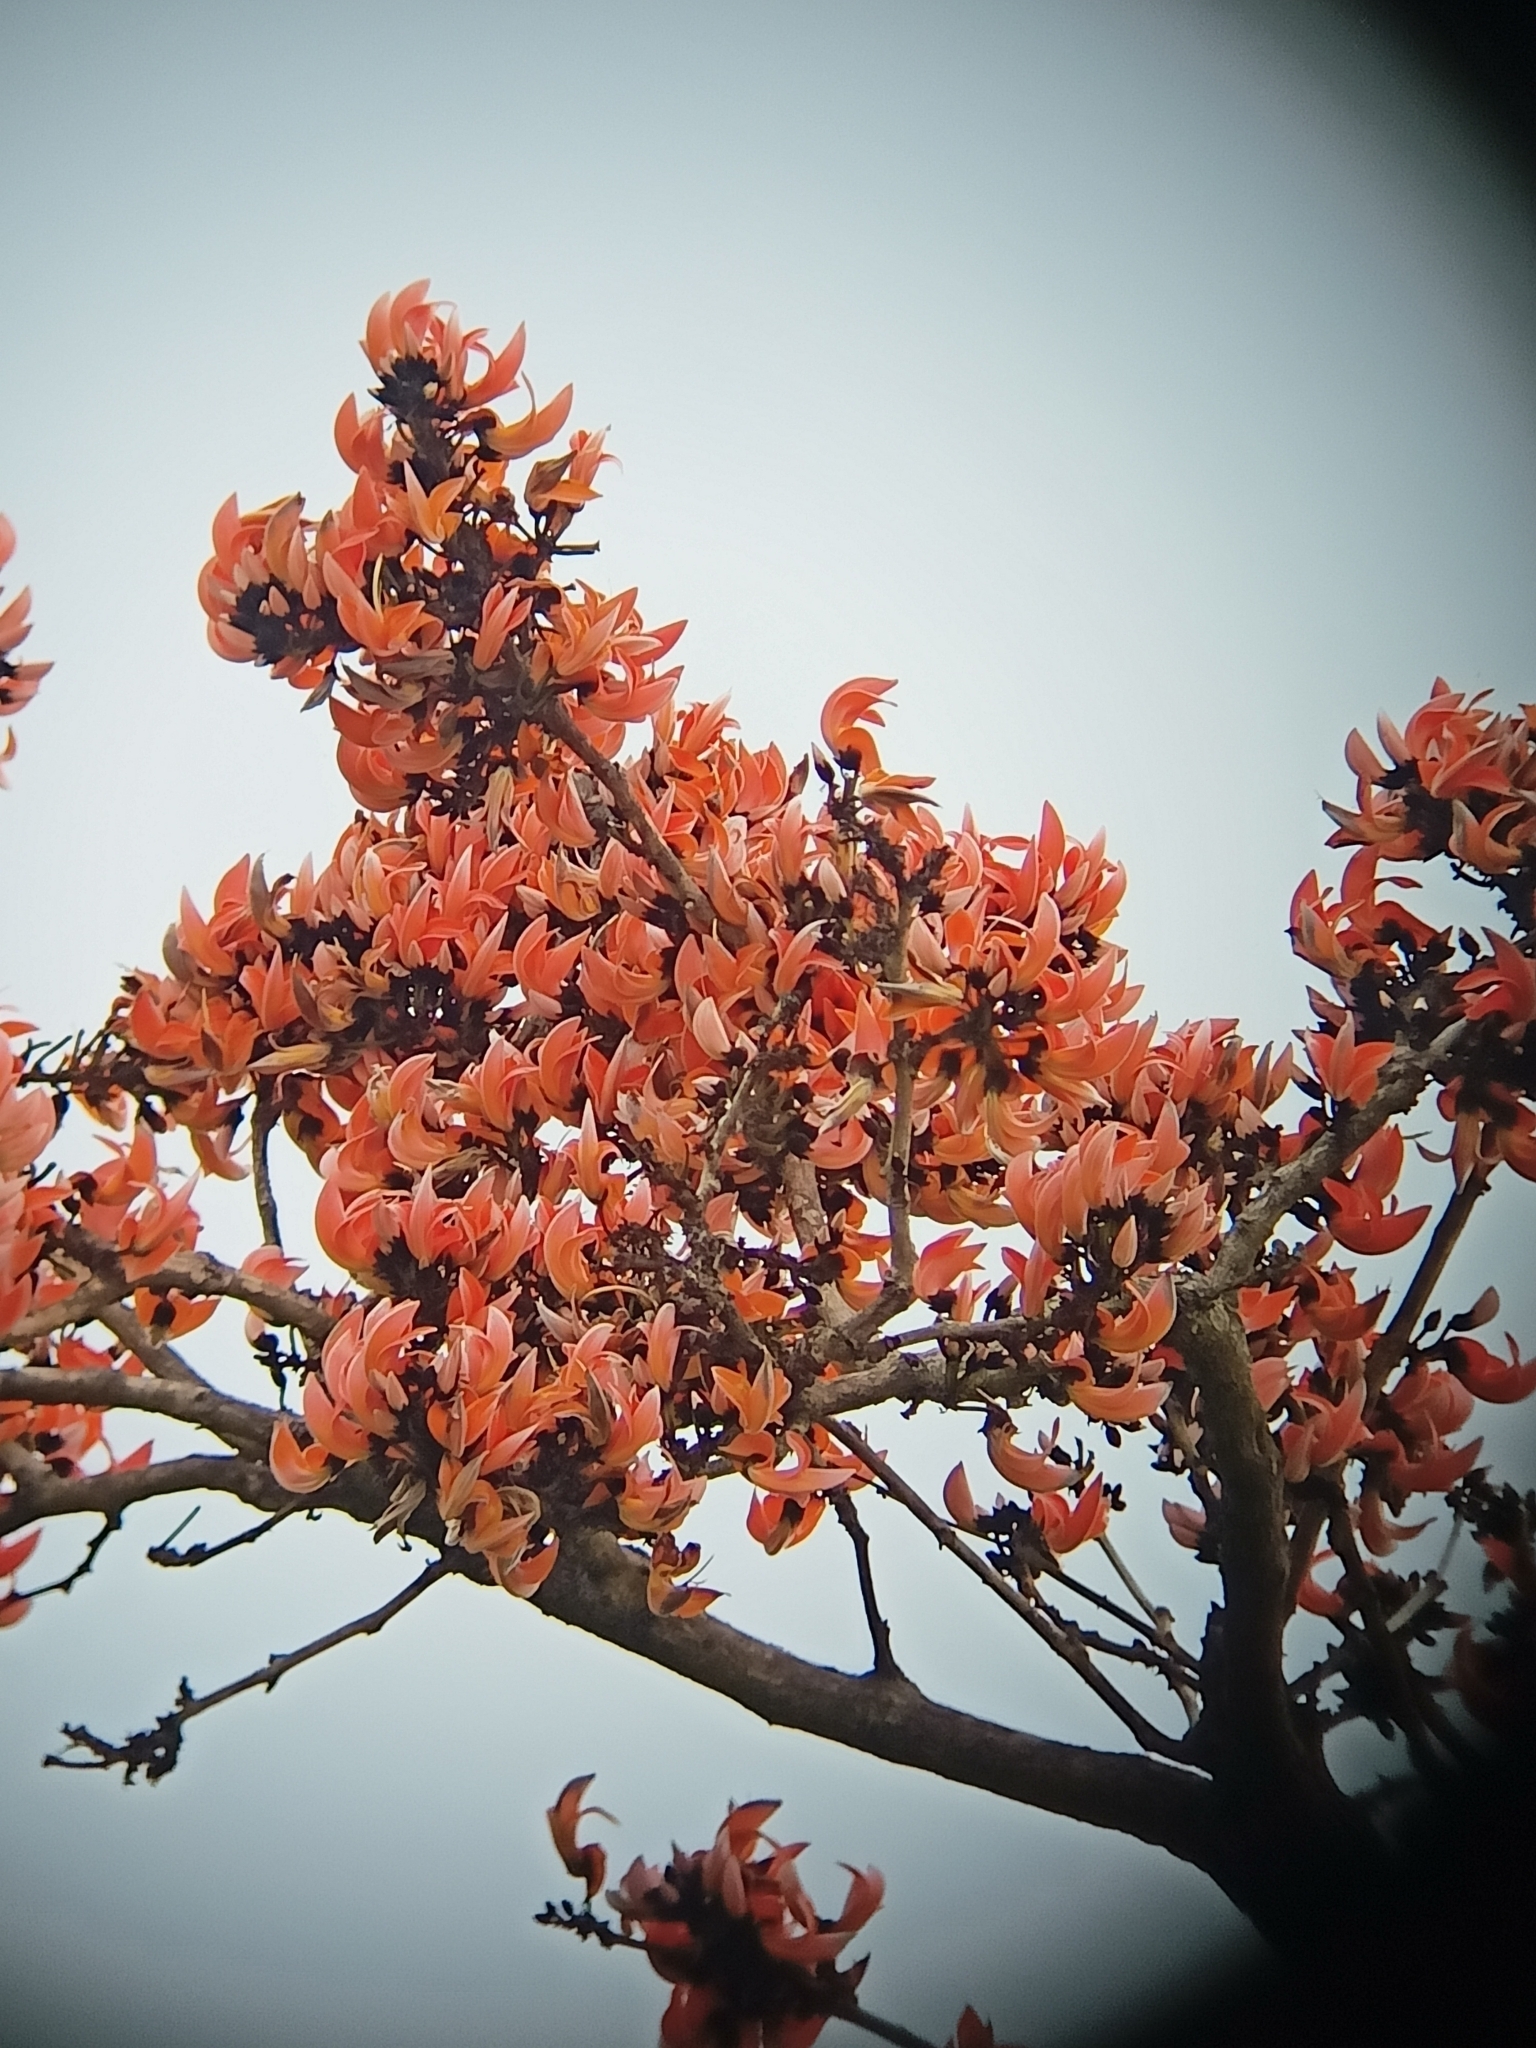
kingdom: Plantae
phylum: Tracheophyta
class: Magnoliopsida
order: Fabales
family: Fabaceae
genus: Butea
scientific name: Butea monosperma
